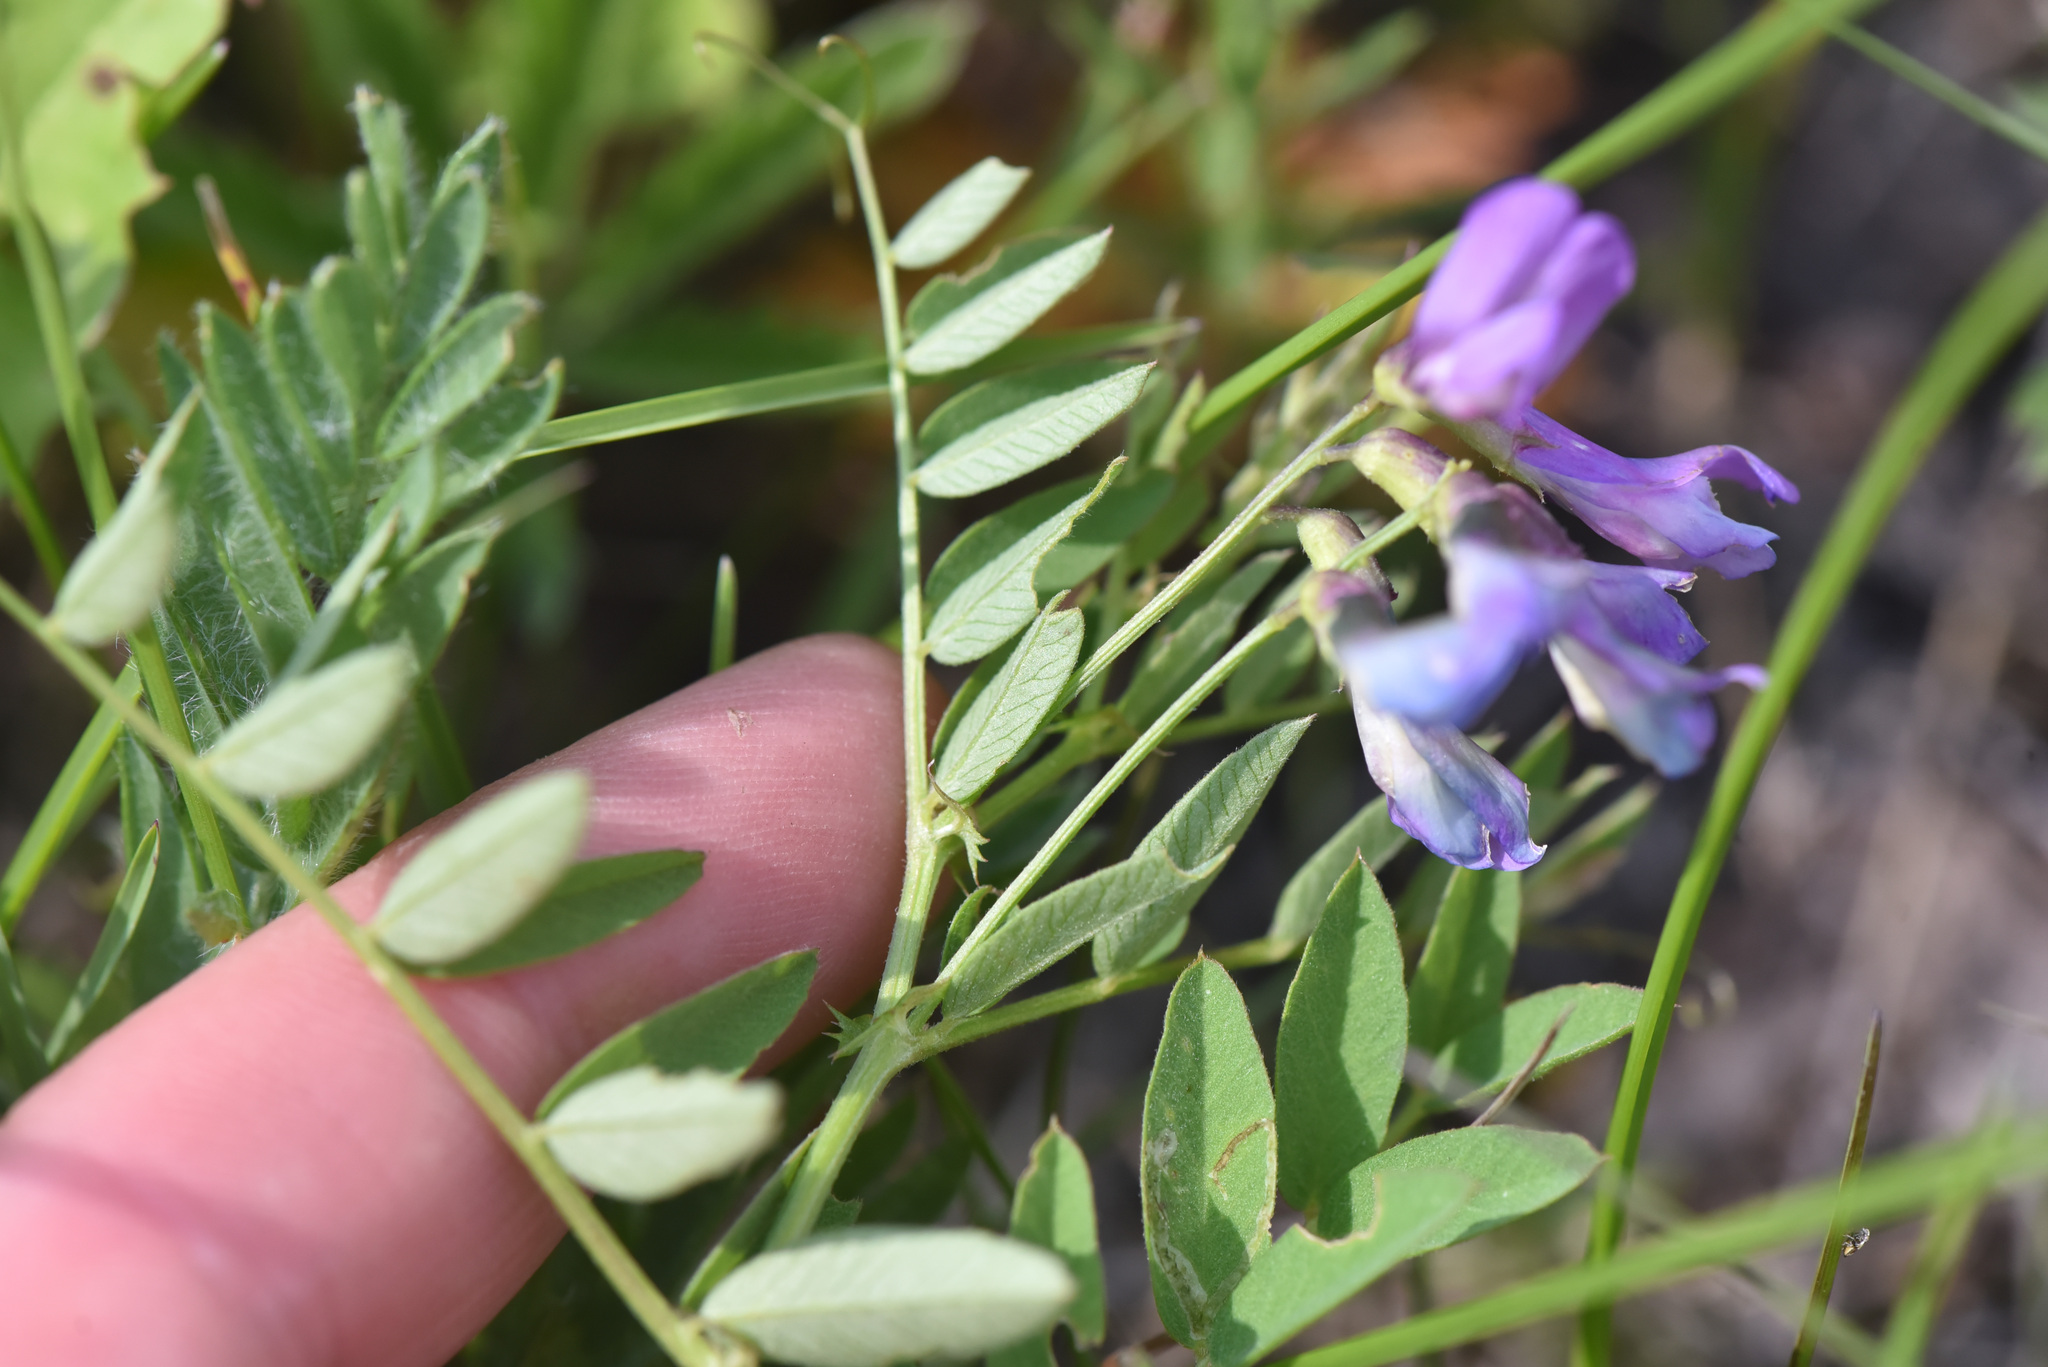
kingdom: Plantae
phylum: Tracheophyta
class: Magnoliopsida
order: Fabales
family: Fabaceae
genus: Vicia
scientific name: Vicia americana
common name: American vetch
